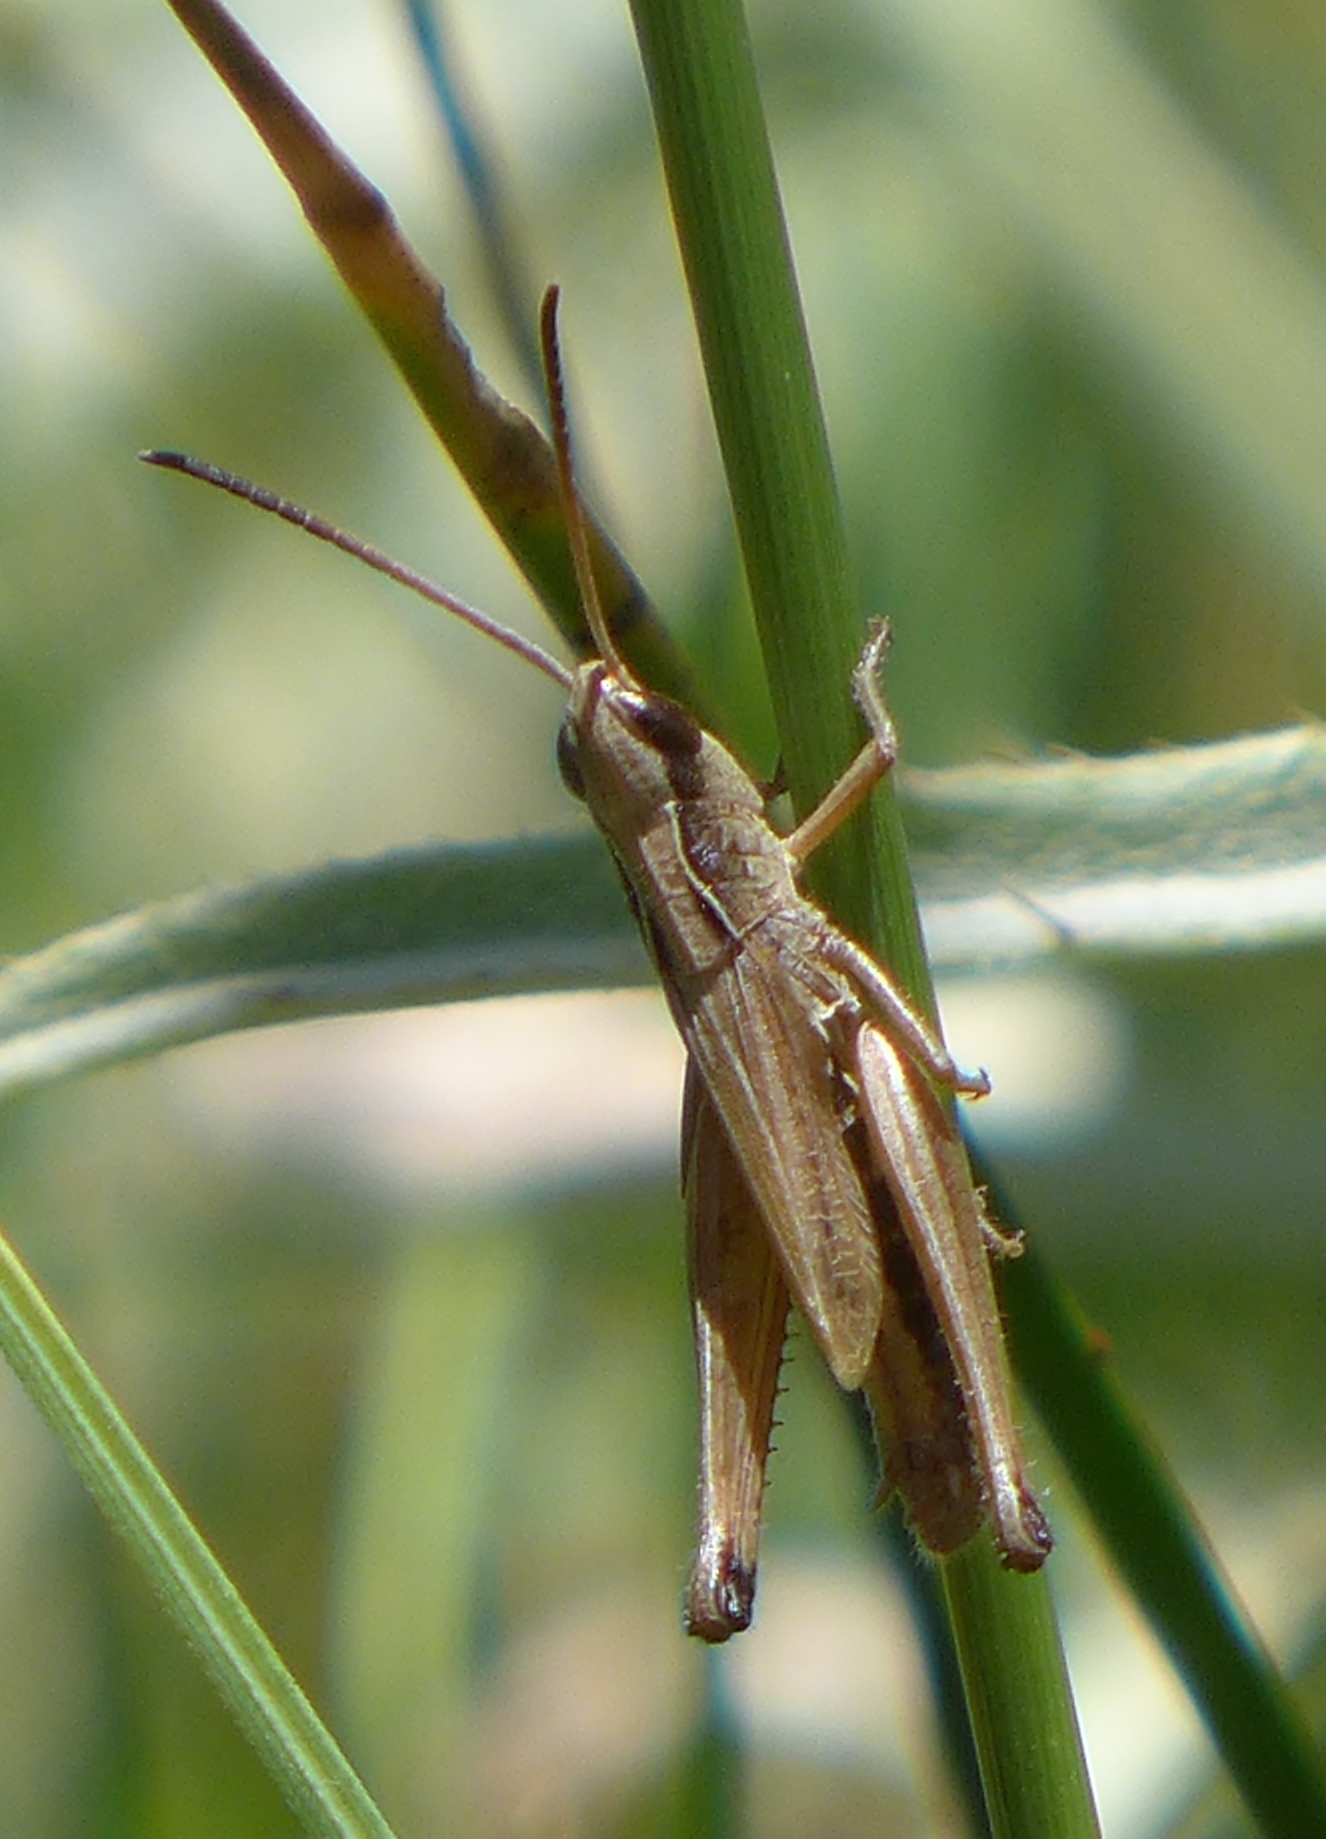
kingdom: Animalia
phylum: Arthropoda
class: Insecta
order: Orthoptera
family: Acrididae
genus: Pseudochorthippus
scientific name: Pseudochorthippus curtipennis
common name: Marsh meadow grasshopper
